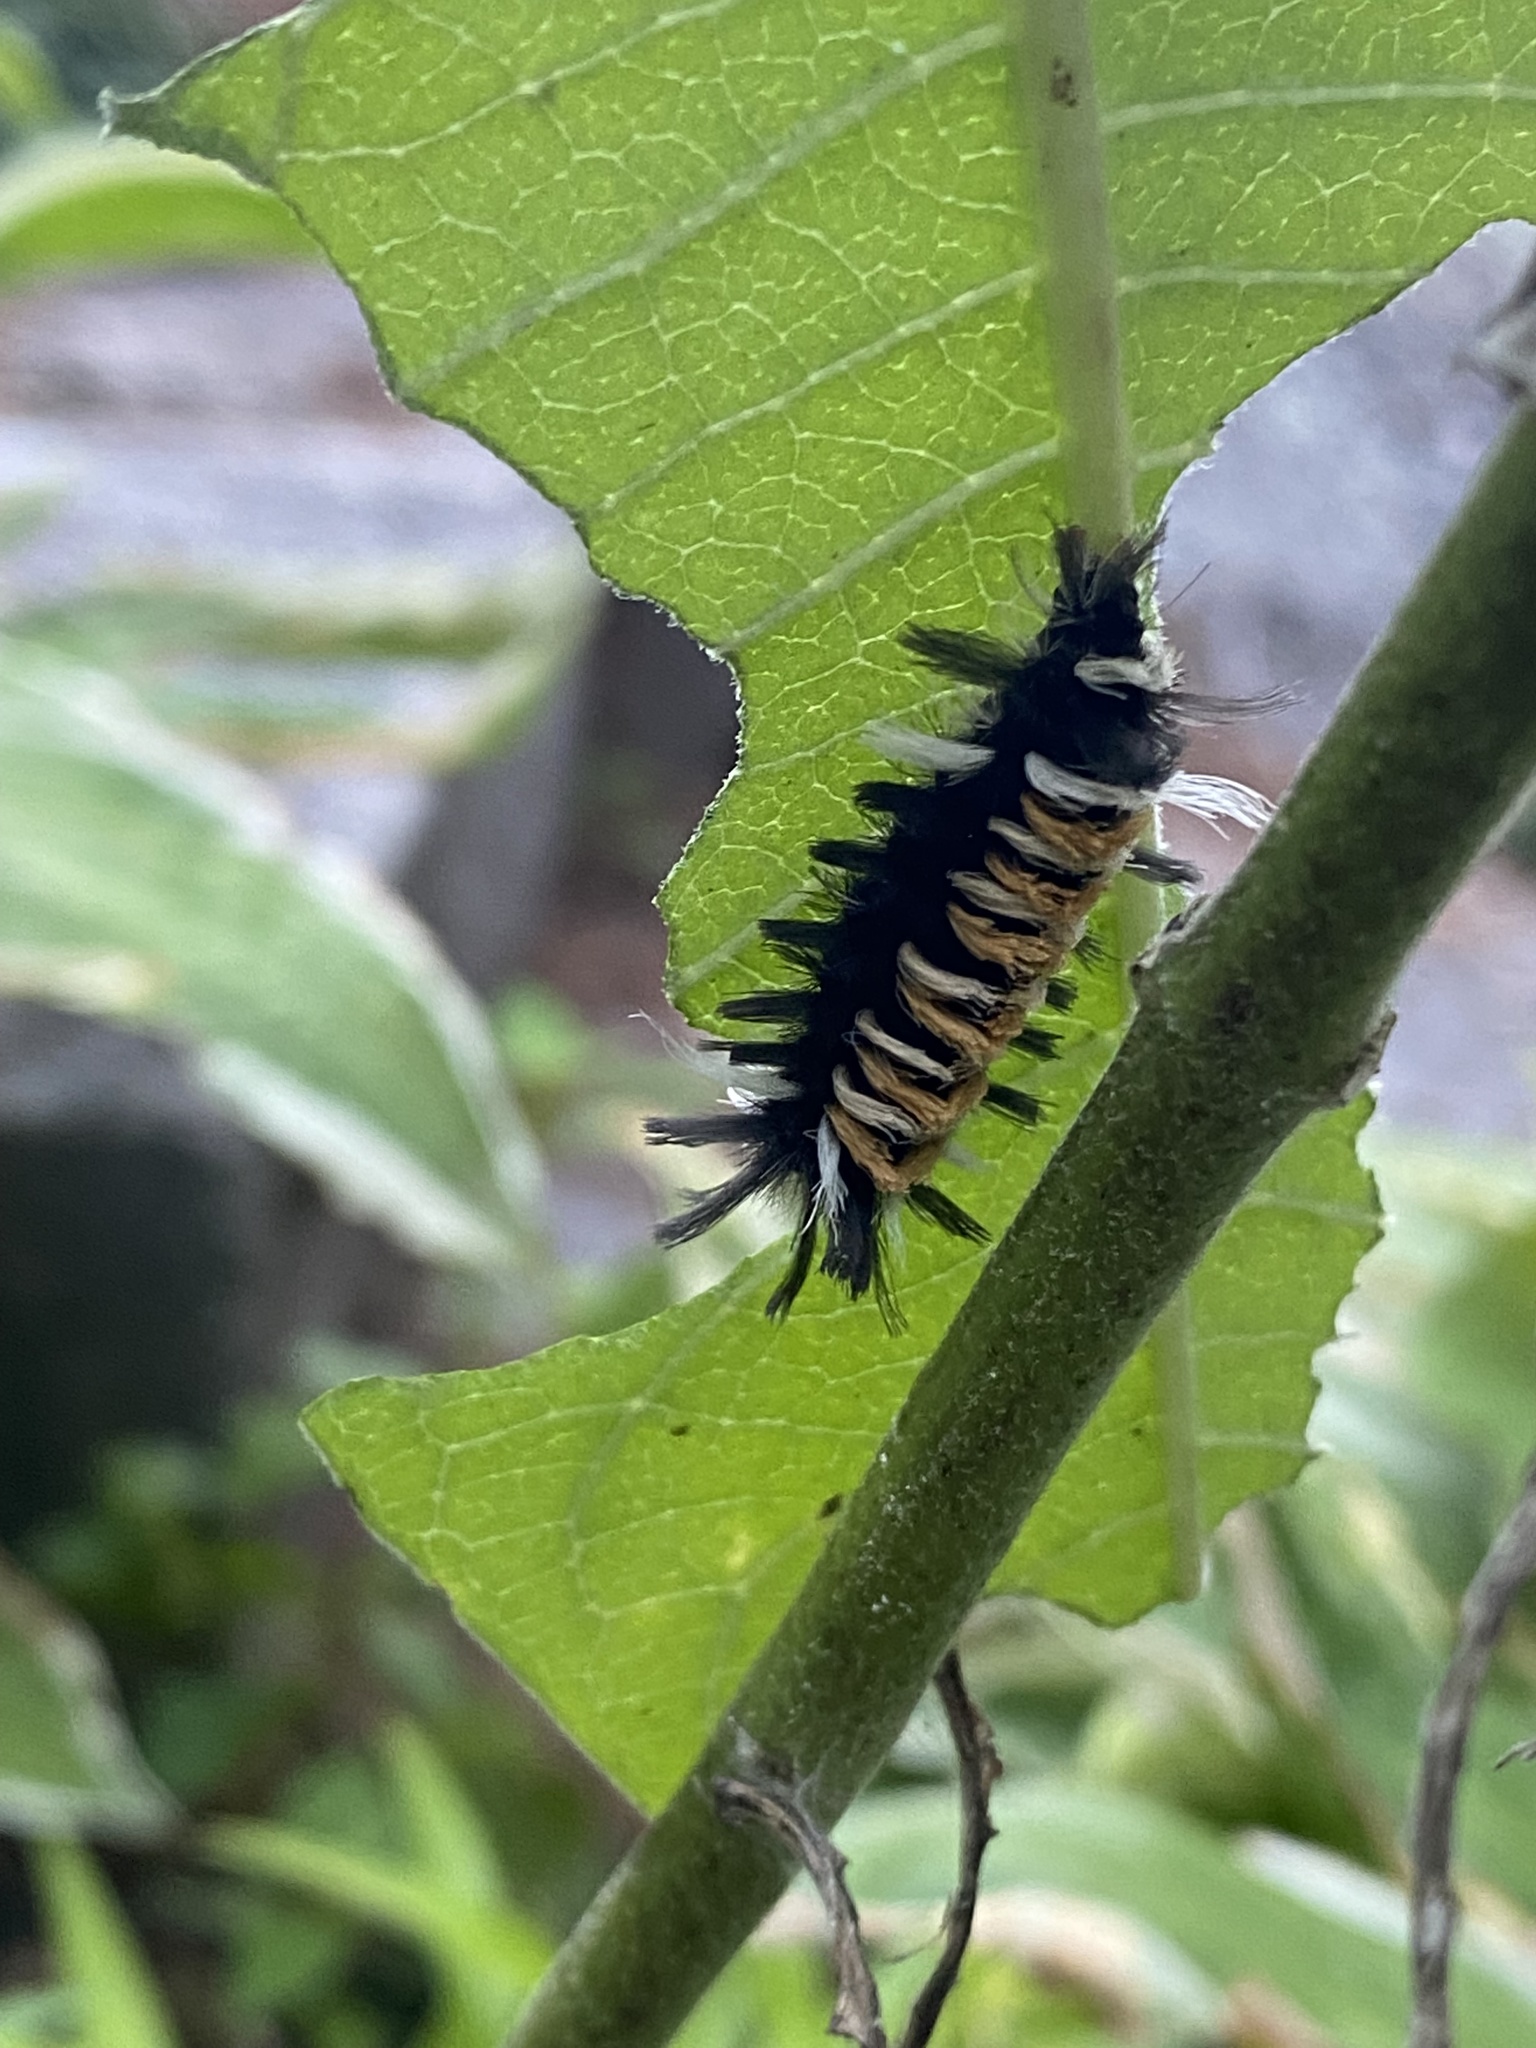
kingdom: Animalia
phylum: Arthropoda
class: Insecta
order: Lepidoptera
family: Erebidae
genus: Euchaetes
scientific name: Euchaetes egle
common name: Milkweed tussock moth
